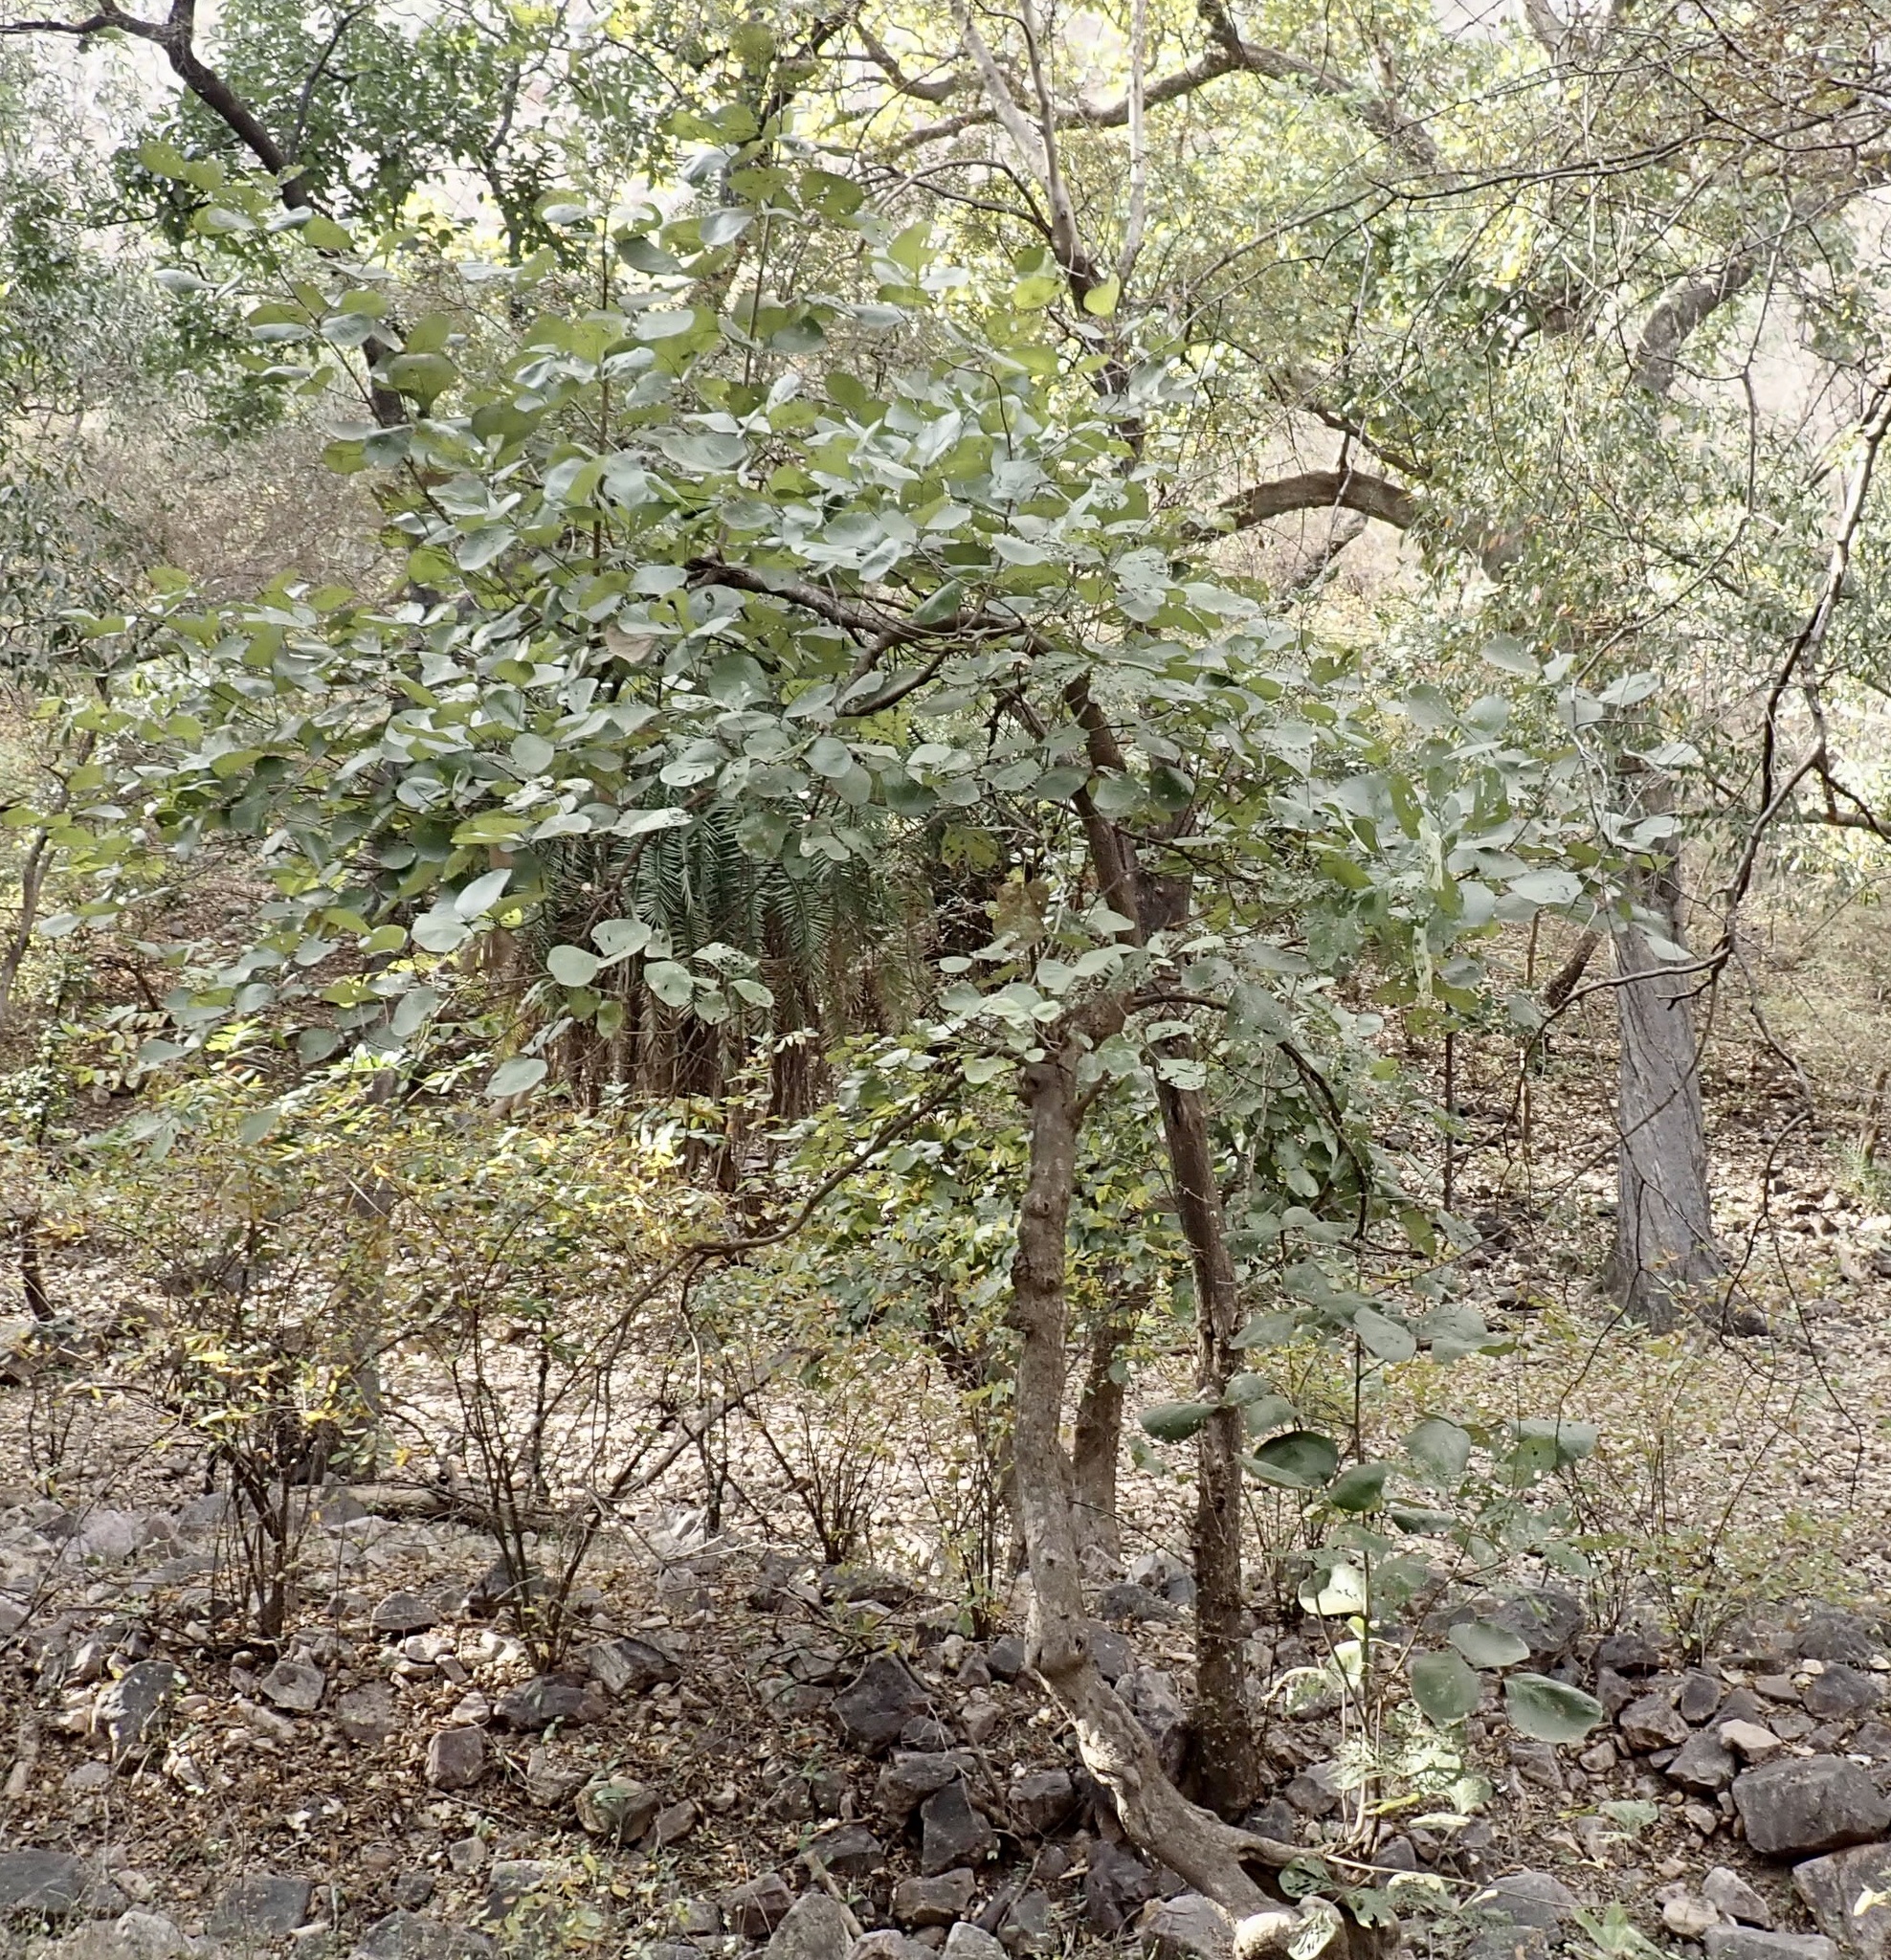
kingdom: Plantae
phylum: Tracheophyta
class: Magnoliopsida
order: Fabales
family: Fabaceae
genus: Butea
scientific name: Butea monosperma
